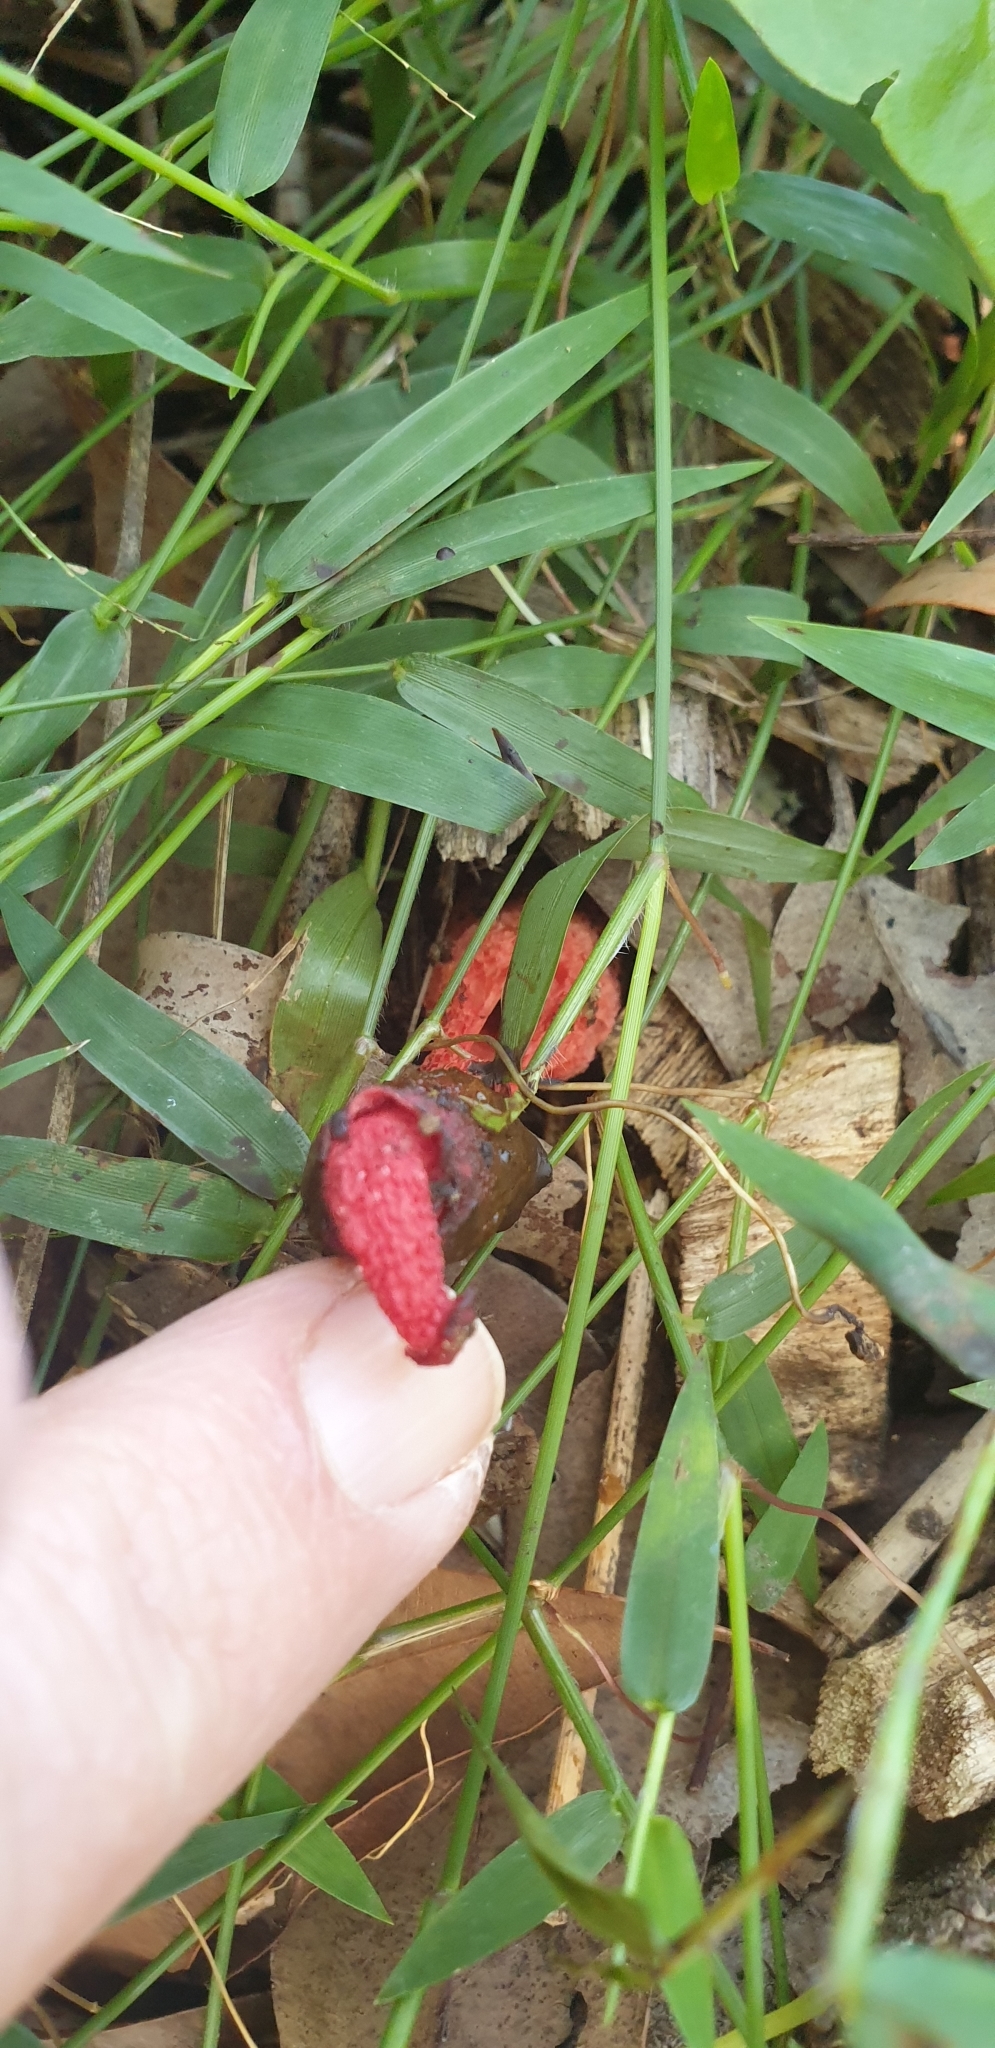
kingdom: Fungi
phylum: Basidiomycota
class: Agaricomycetes
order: Phallales
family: Phallaceae
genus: Phallus
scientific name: Phallus rubicundus
